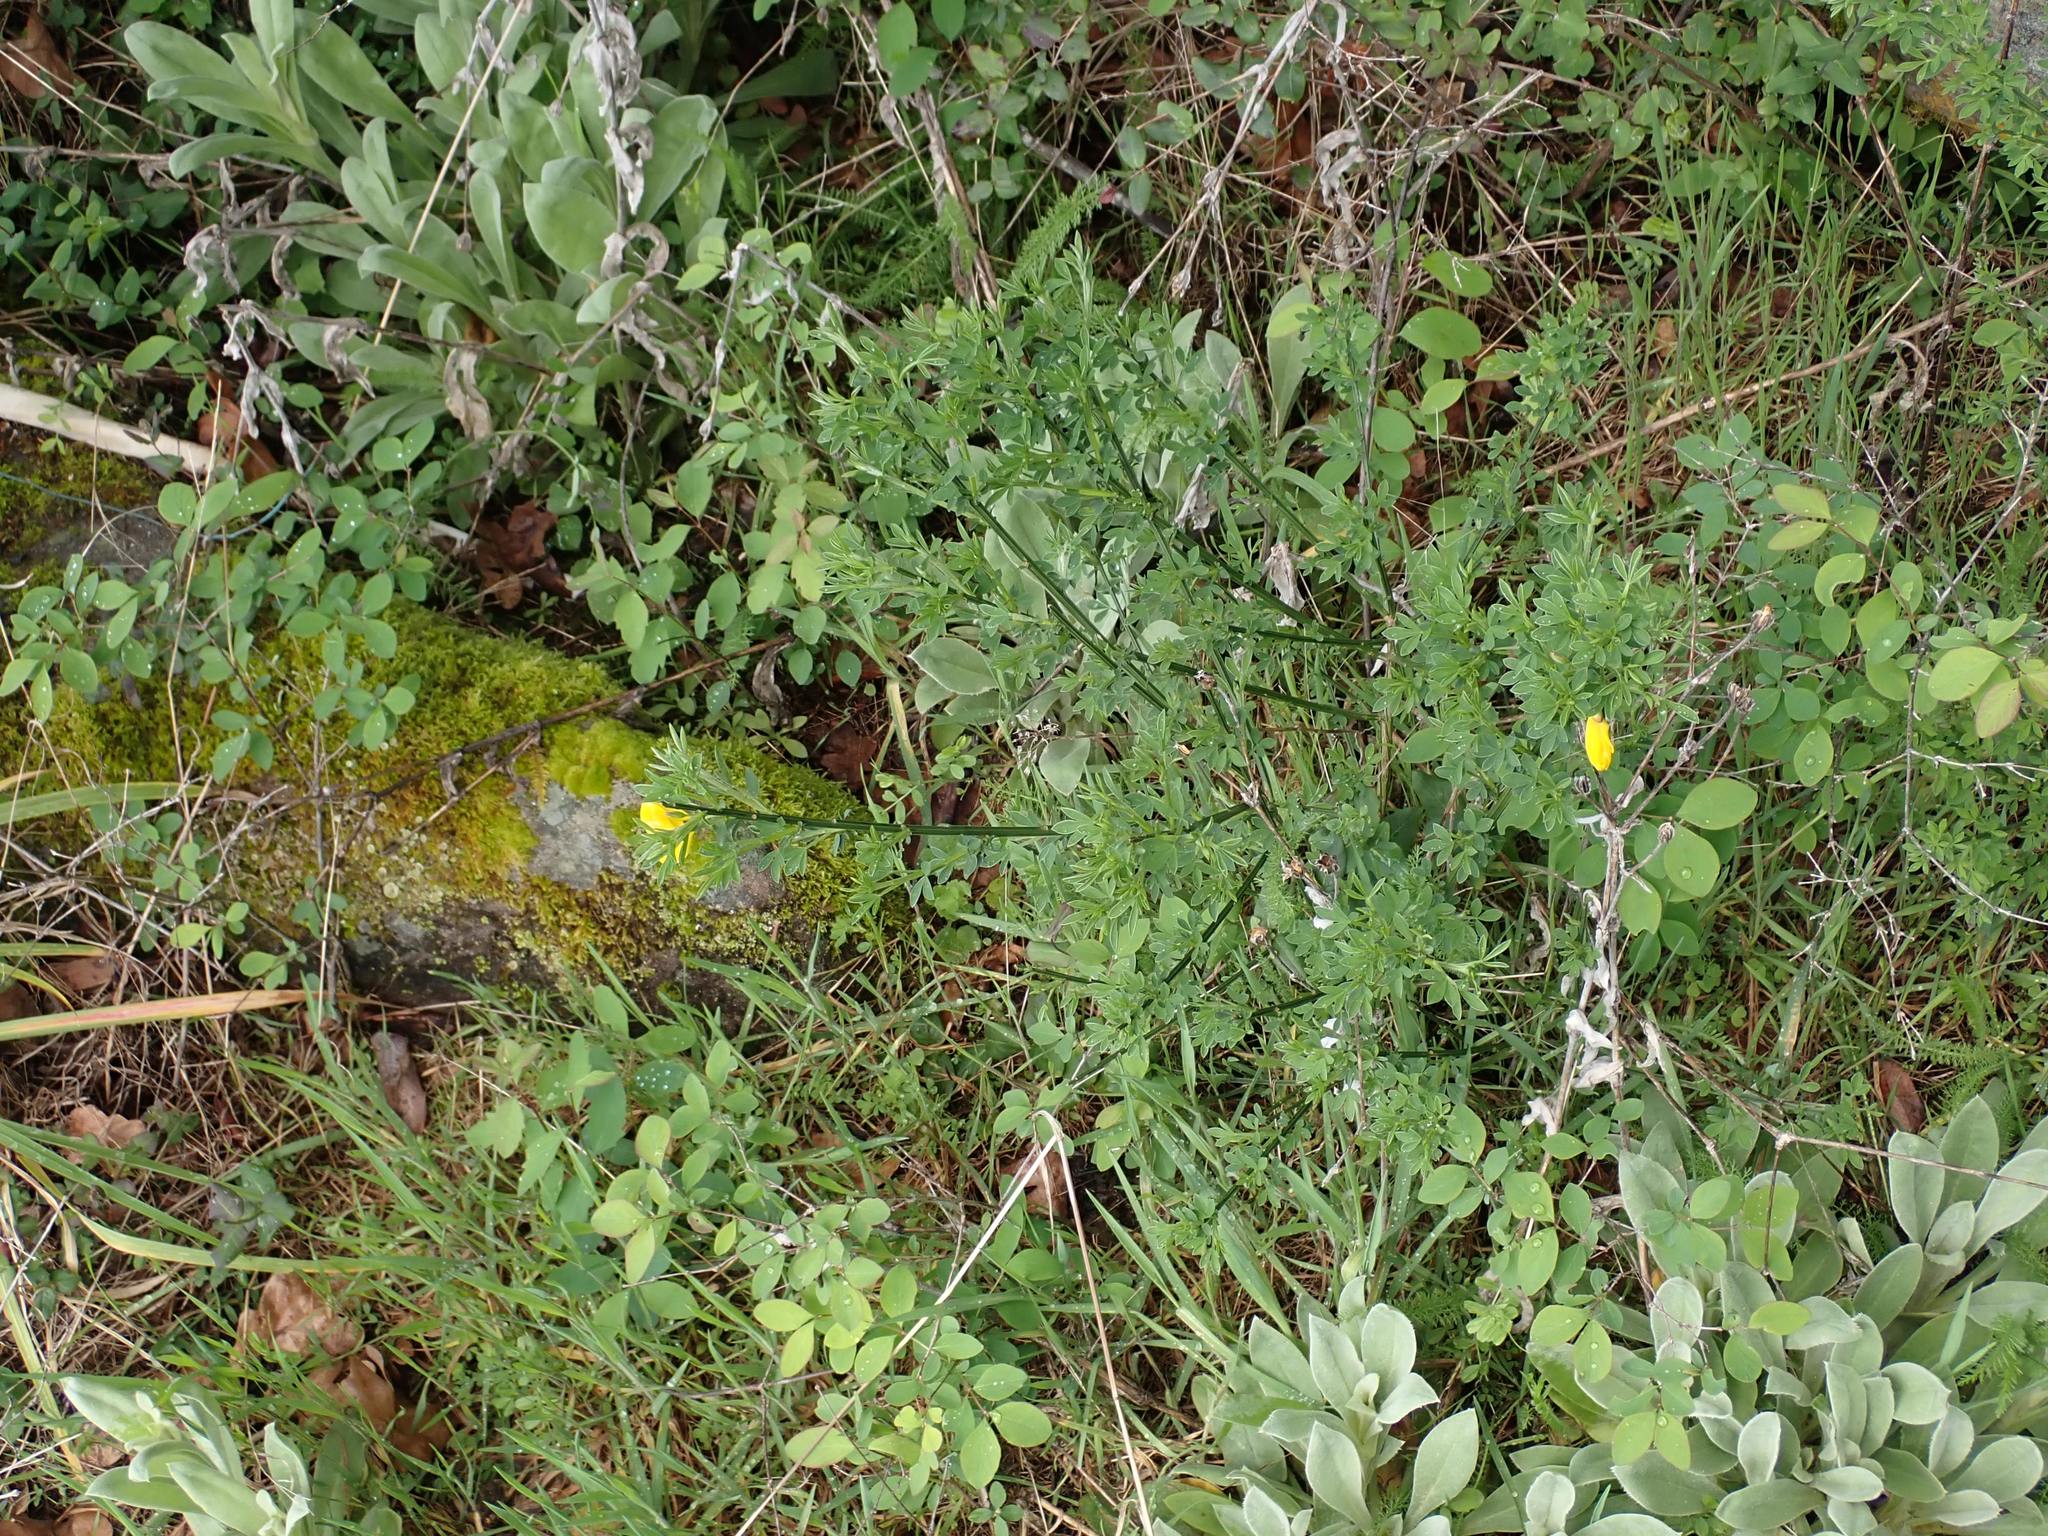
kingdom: Plantae
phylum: Tracheophyta
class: Magnoliopsida
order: Fabales
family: Fabaceae
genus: Cytisus
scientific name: Cytisus scoparius
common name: Scotch broom
